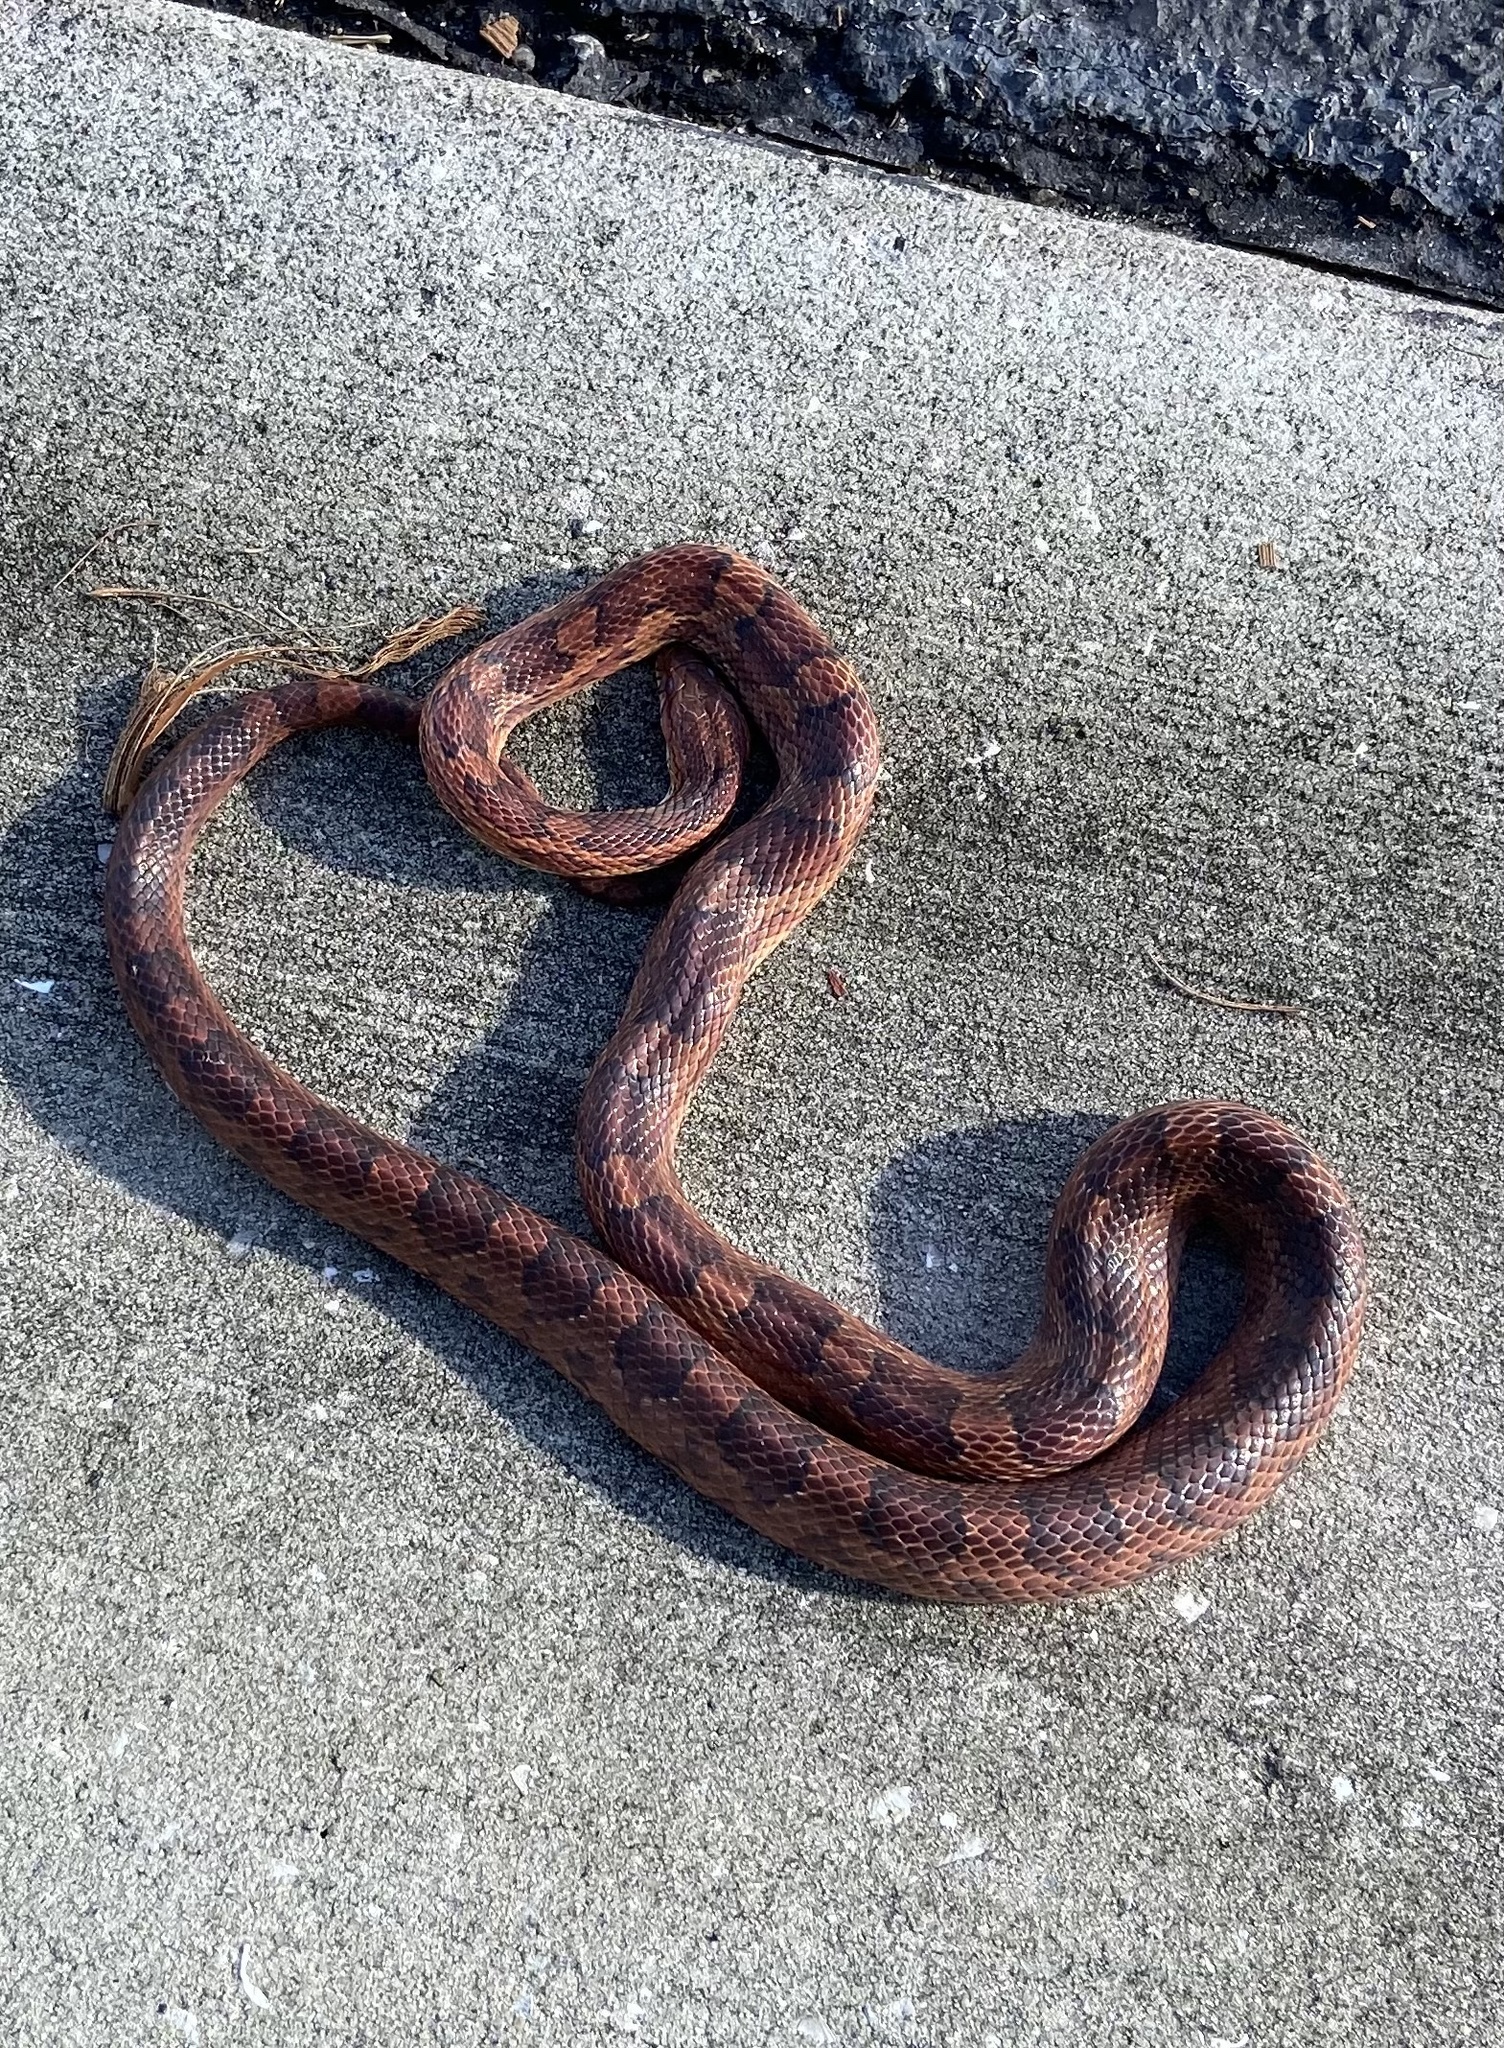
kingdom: Animalia
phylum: Chordata
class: Squamata
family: Colubridae
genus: Pantherophis
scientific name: Pantherophis guttatus
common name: Red cornsnake
